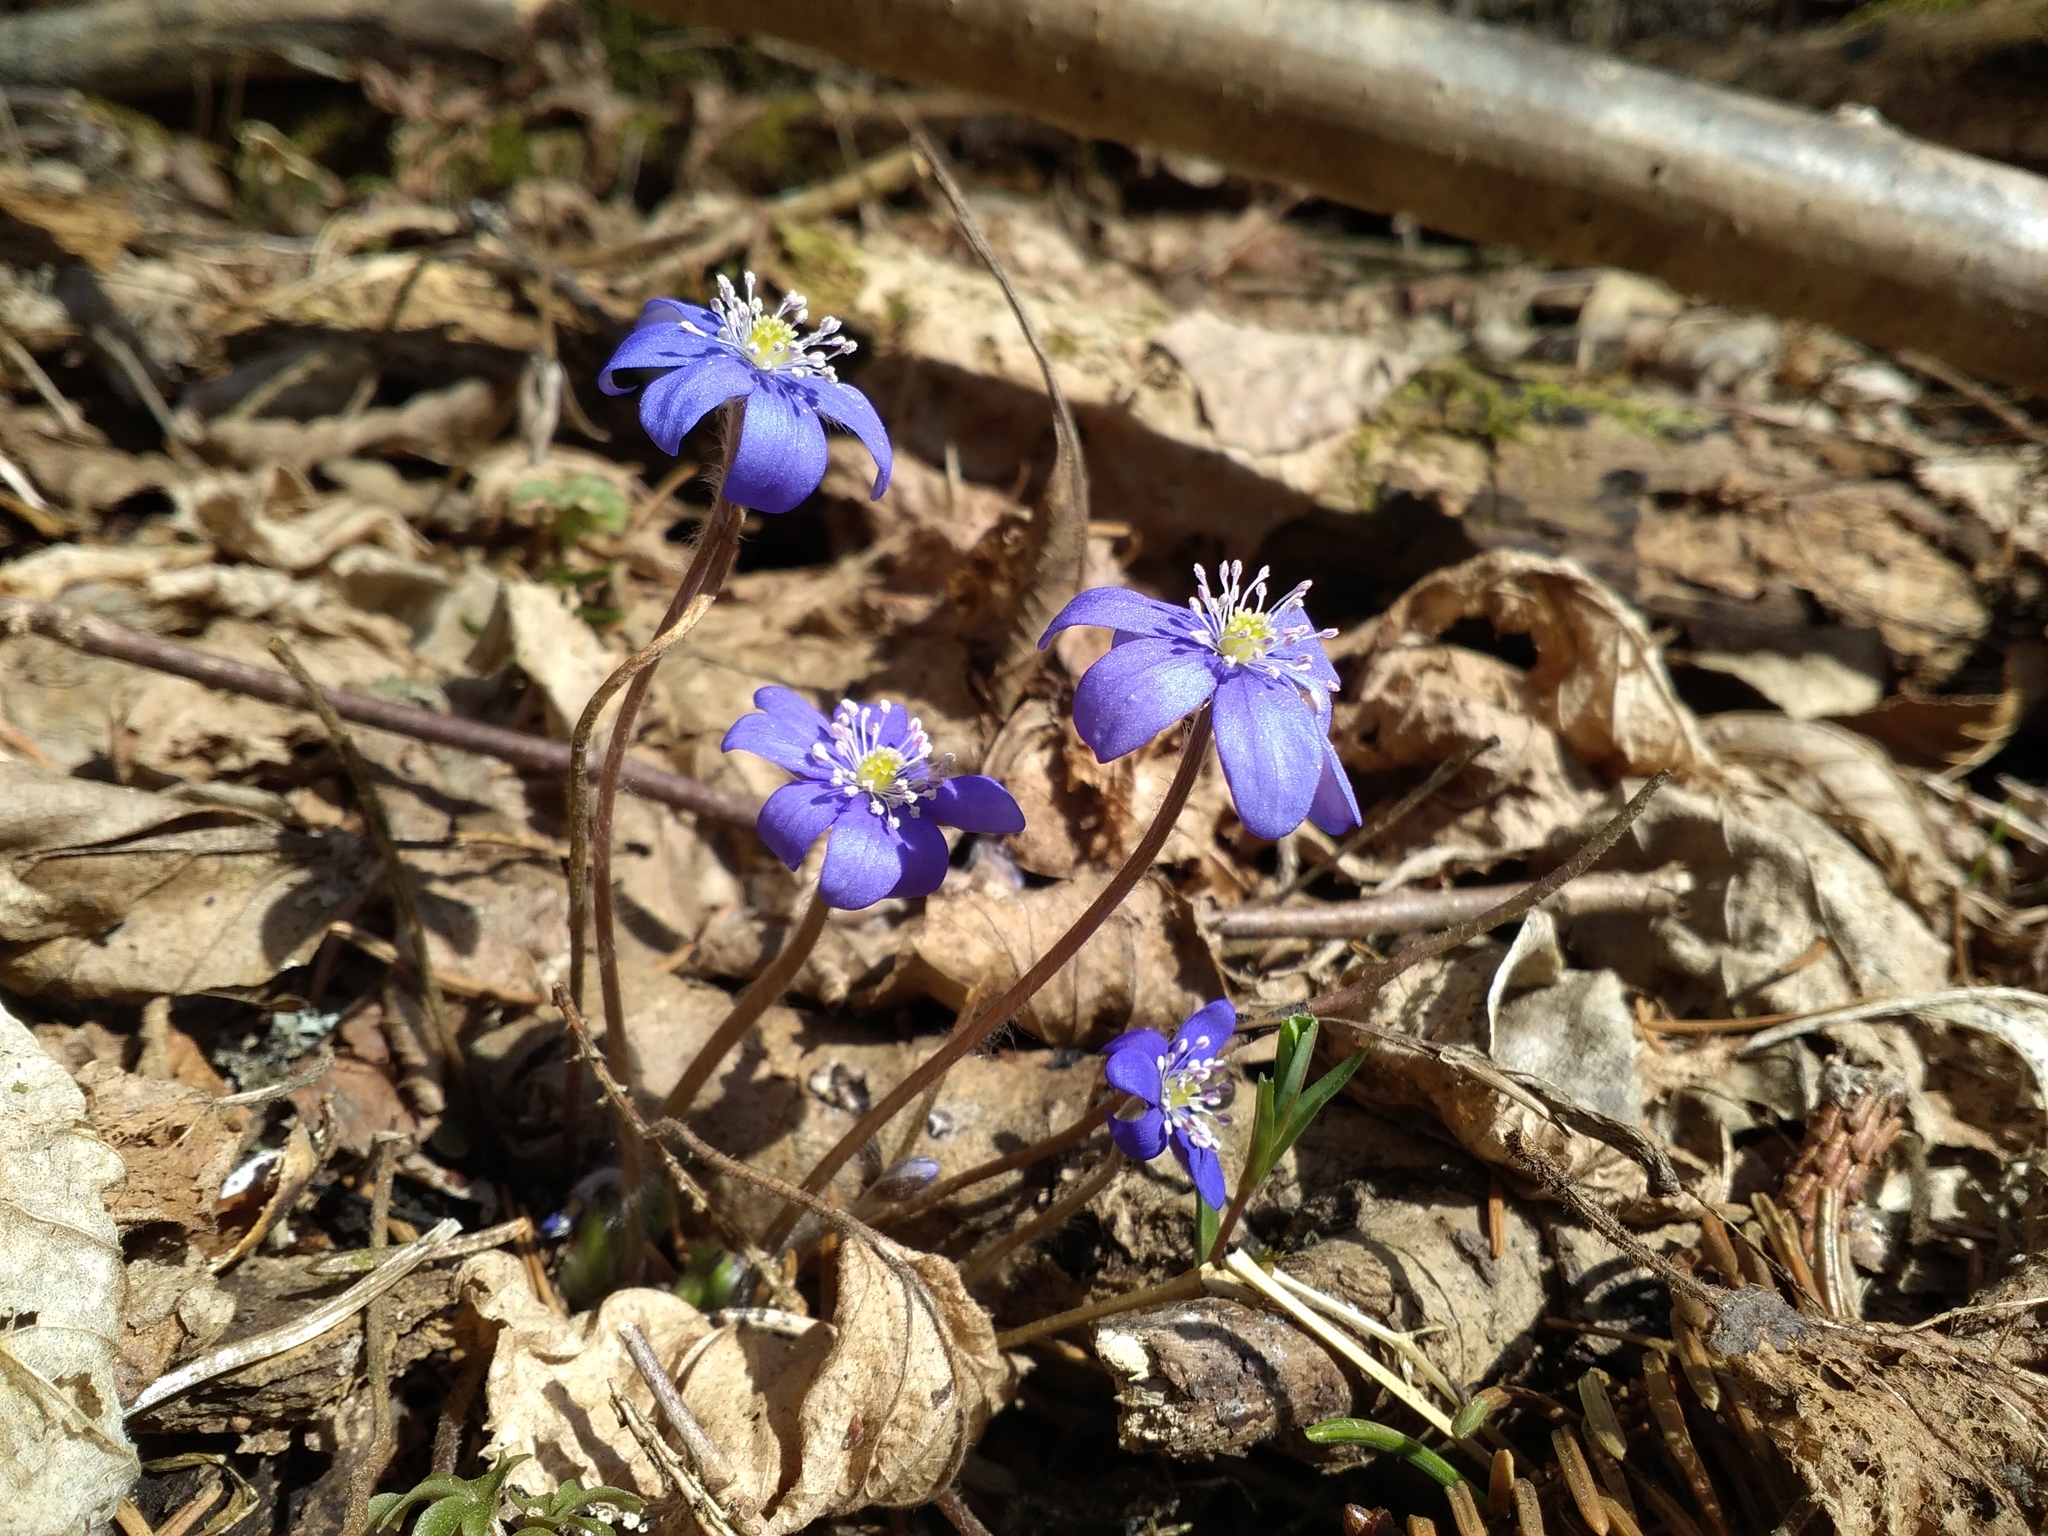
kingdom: Plantae
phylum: Tracheophyta
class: Magnoliopsida
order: Ranunculales
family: Ranunculaceae
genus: Hepatica
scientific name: Hepatica nobilis
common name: Liverleaf
